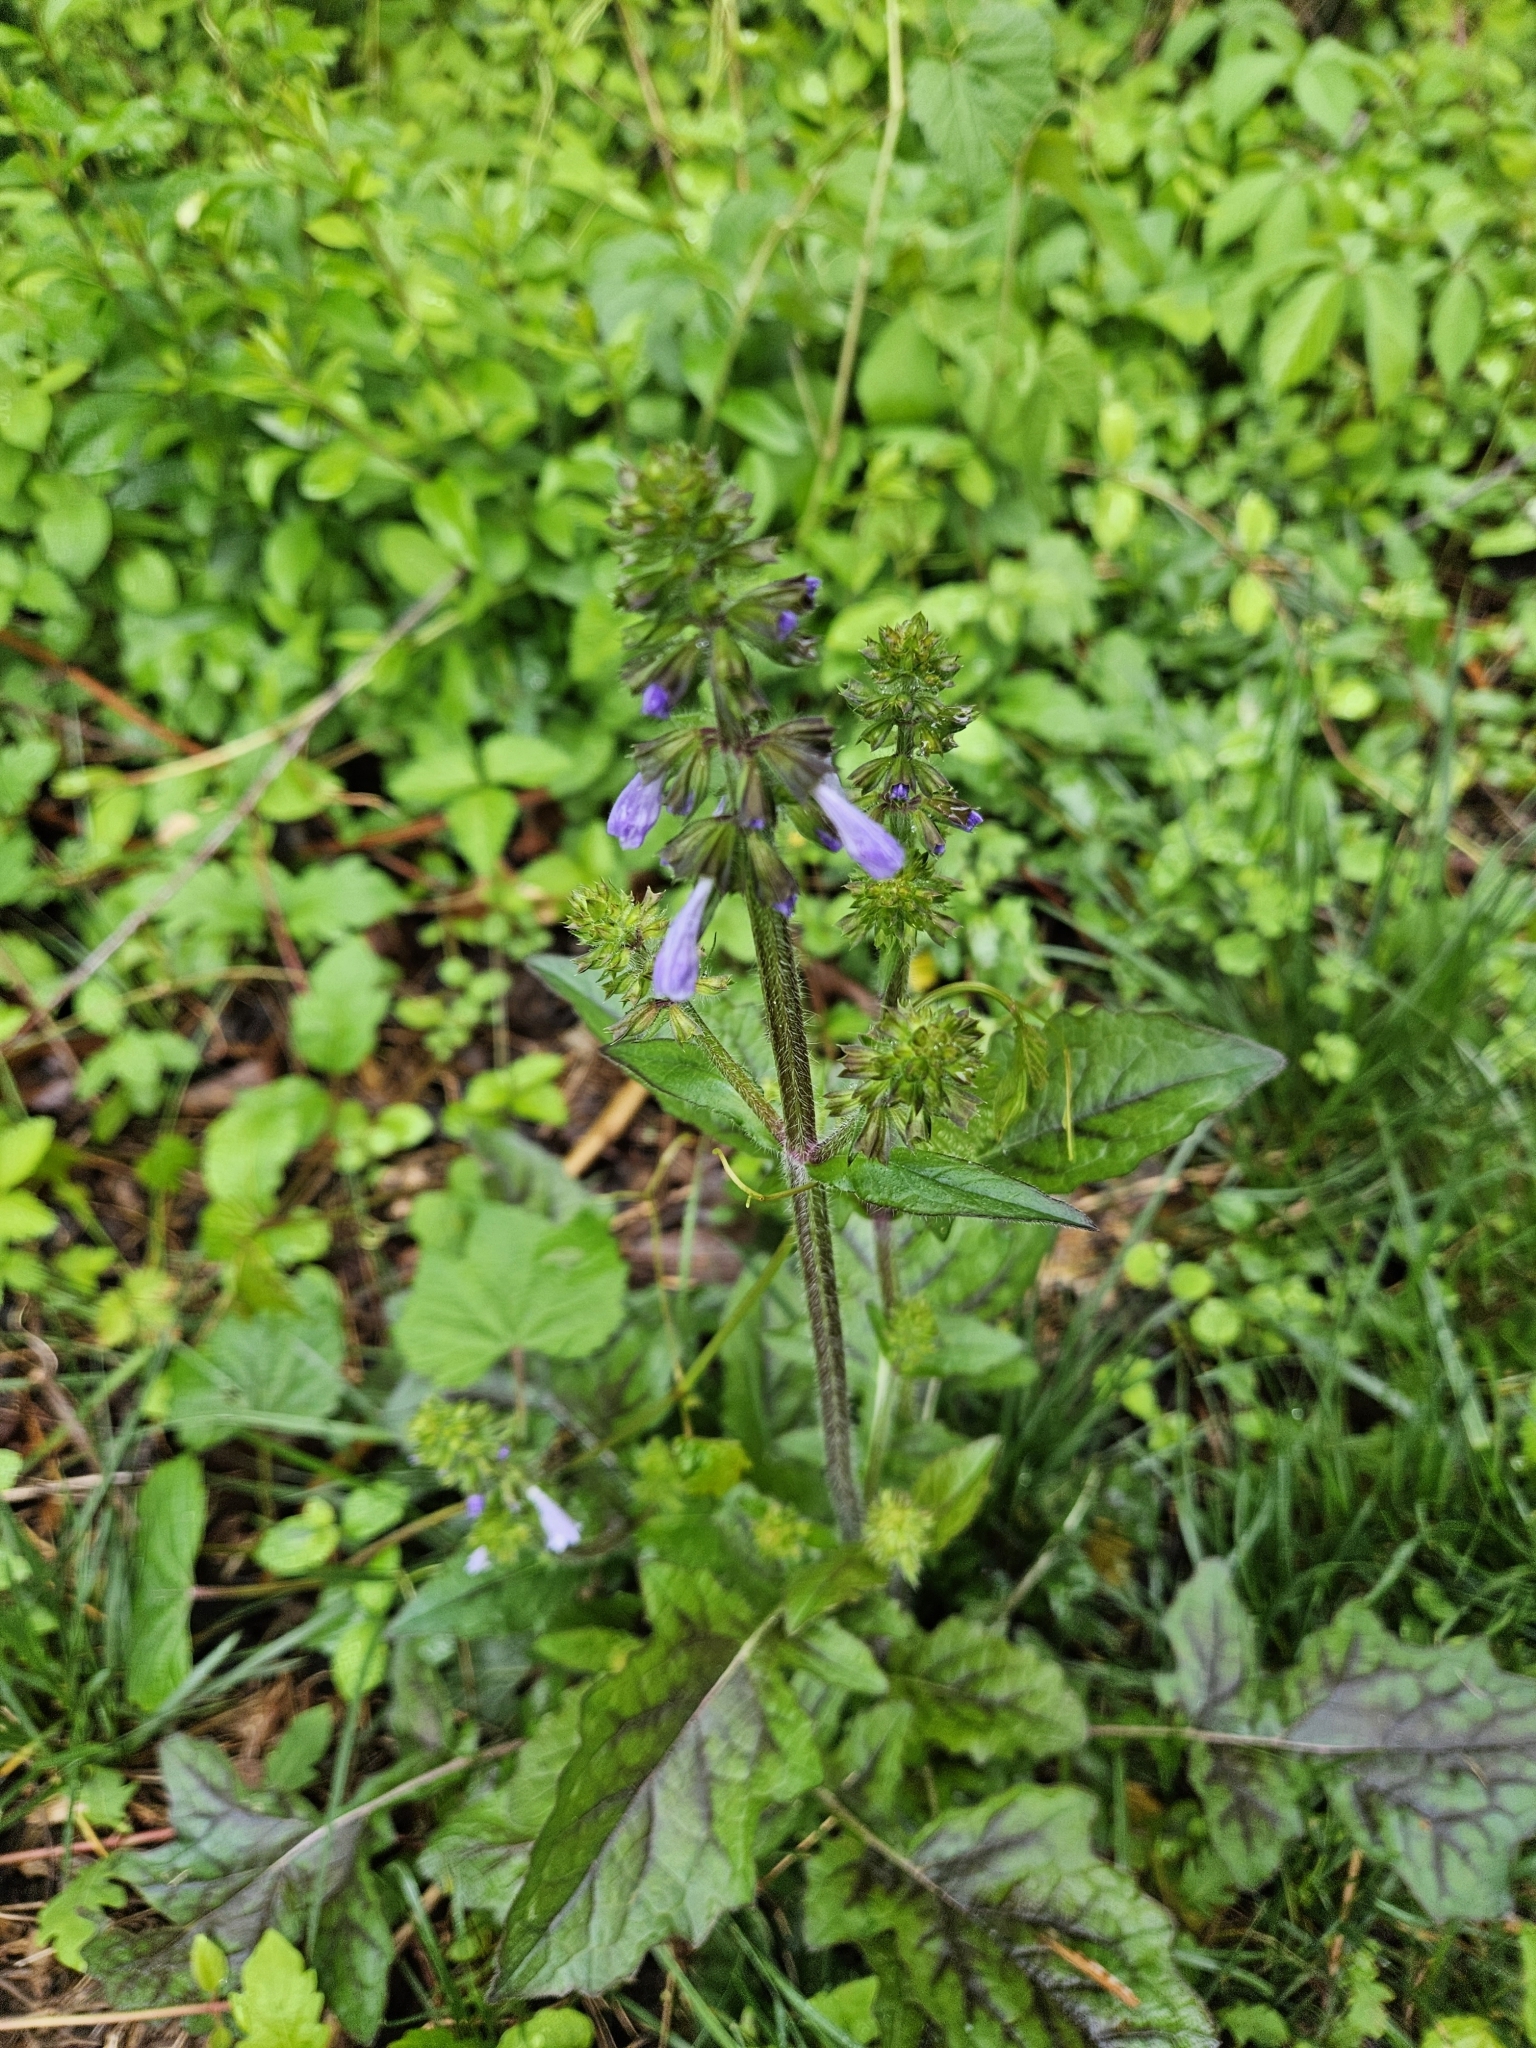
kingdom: Plantae
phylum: Tracheophyta
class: Magnoliopsida
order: Lamiales
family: Lamiaceae
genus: Salvia
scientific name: Salvia lyrata
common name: Cancerweed
